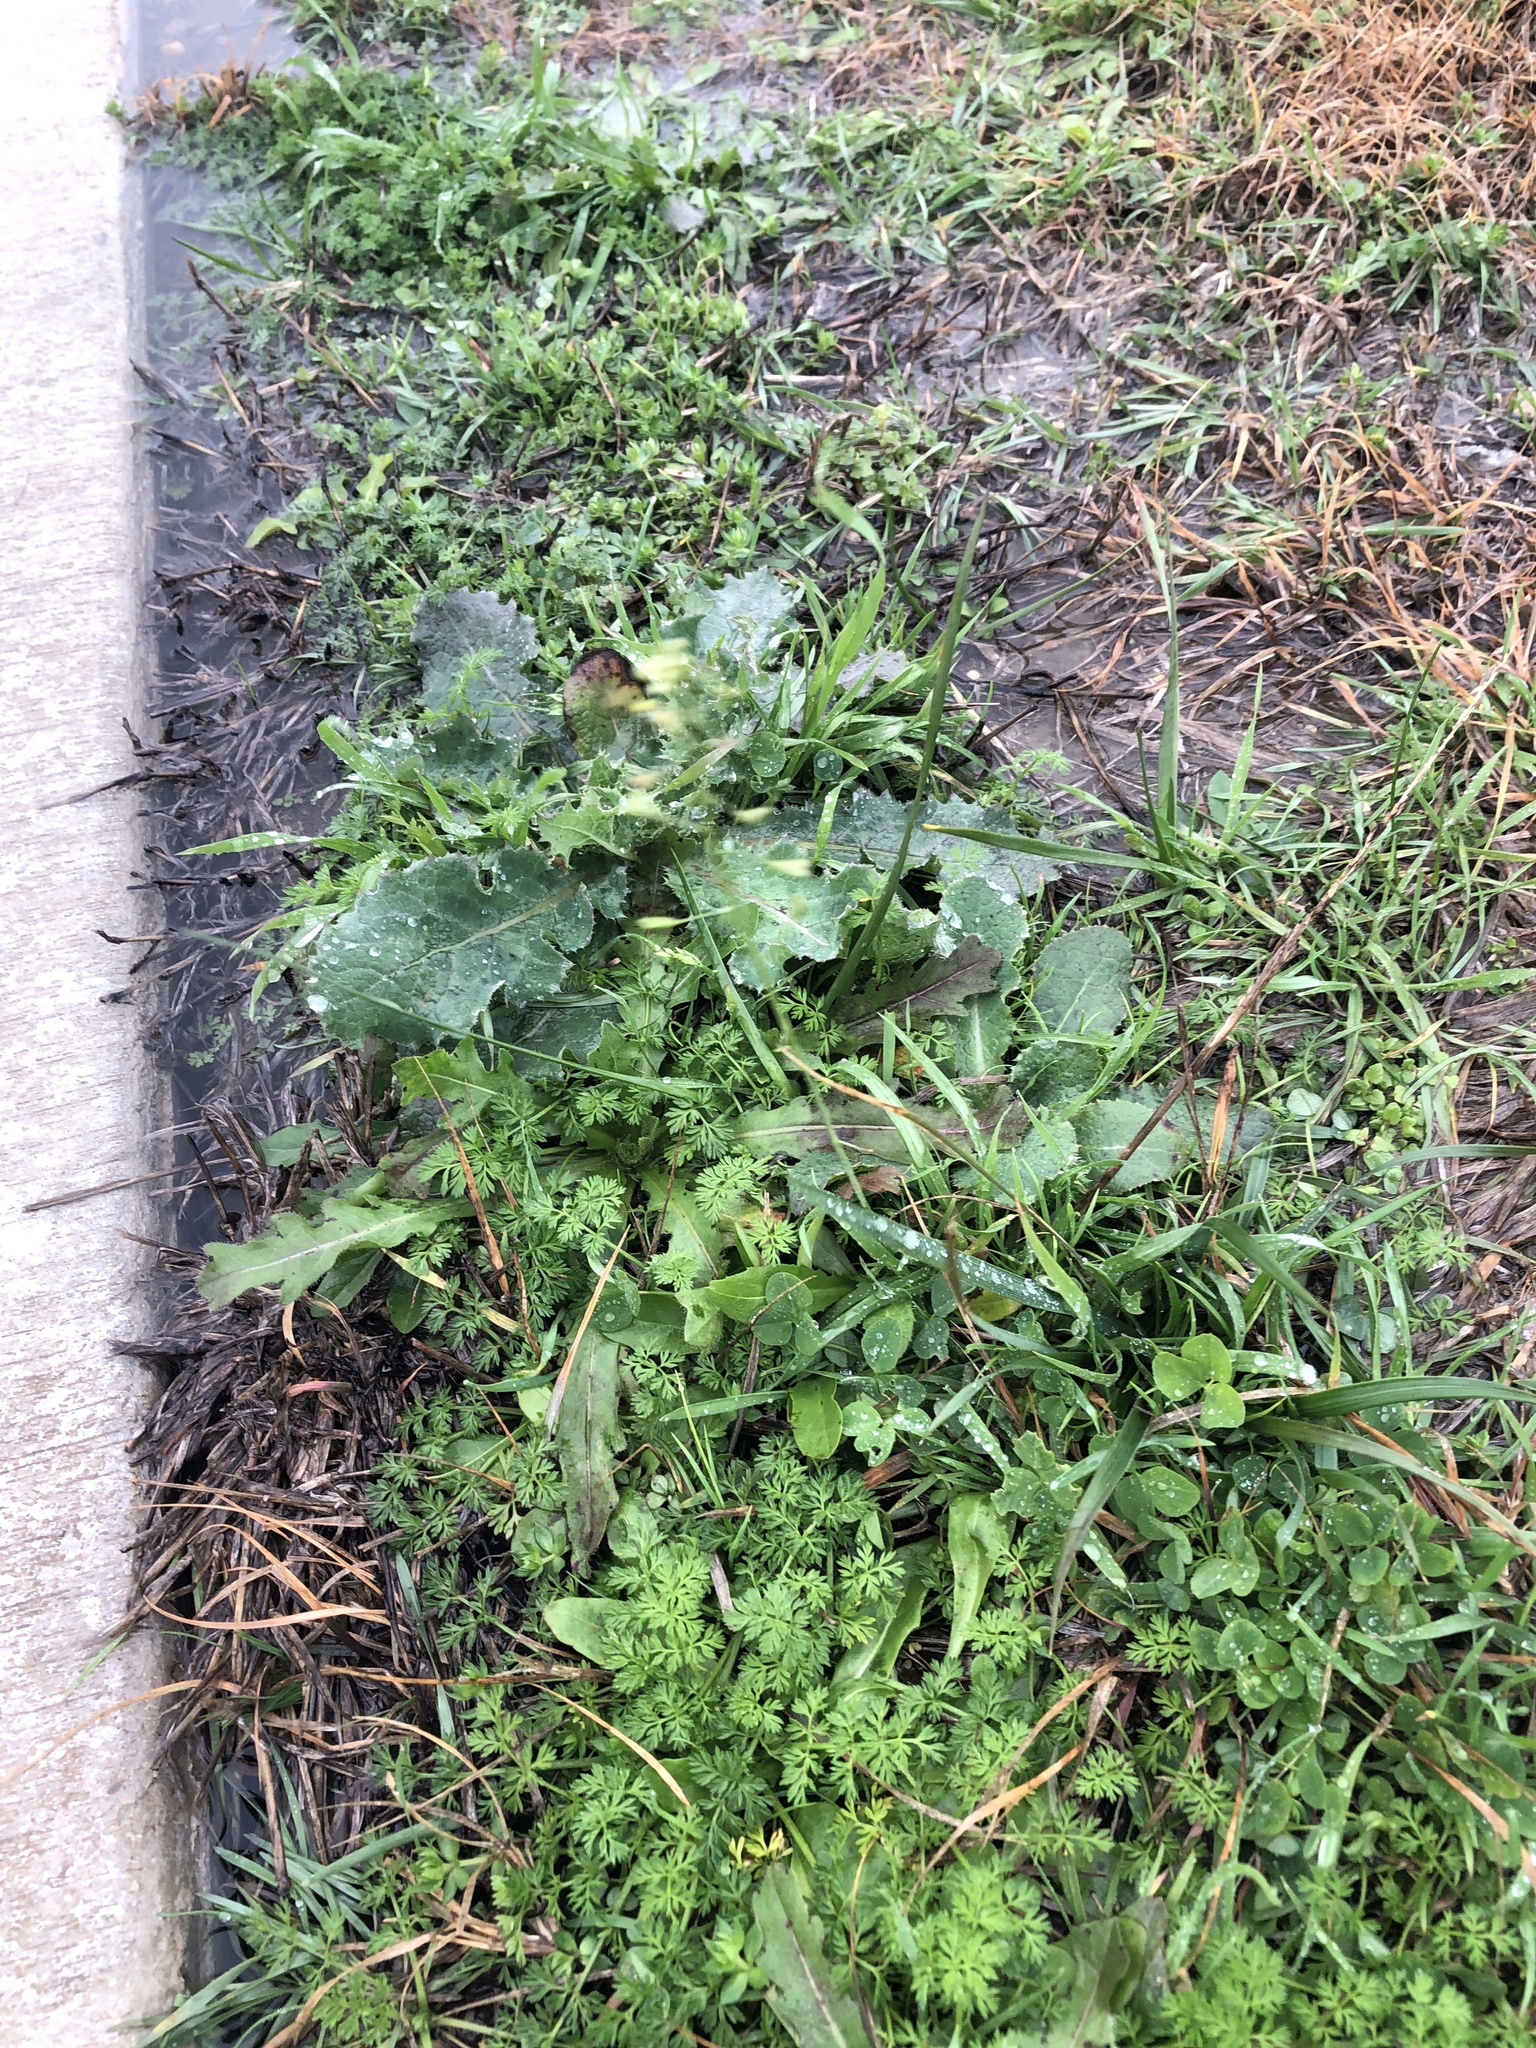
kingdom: Plantae
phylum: Tracheophyta
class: Magnoliopsida
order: Brassicales
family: Brassicaceae
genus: Capsella
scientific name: Capsella bursa-pastoris
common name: Shepherd's purse
